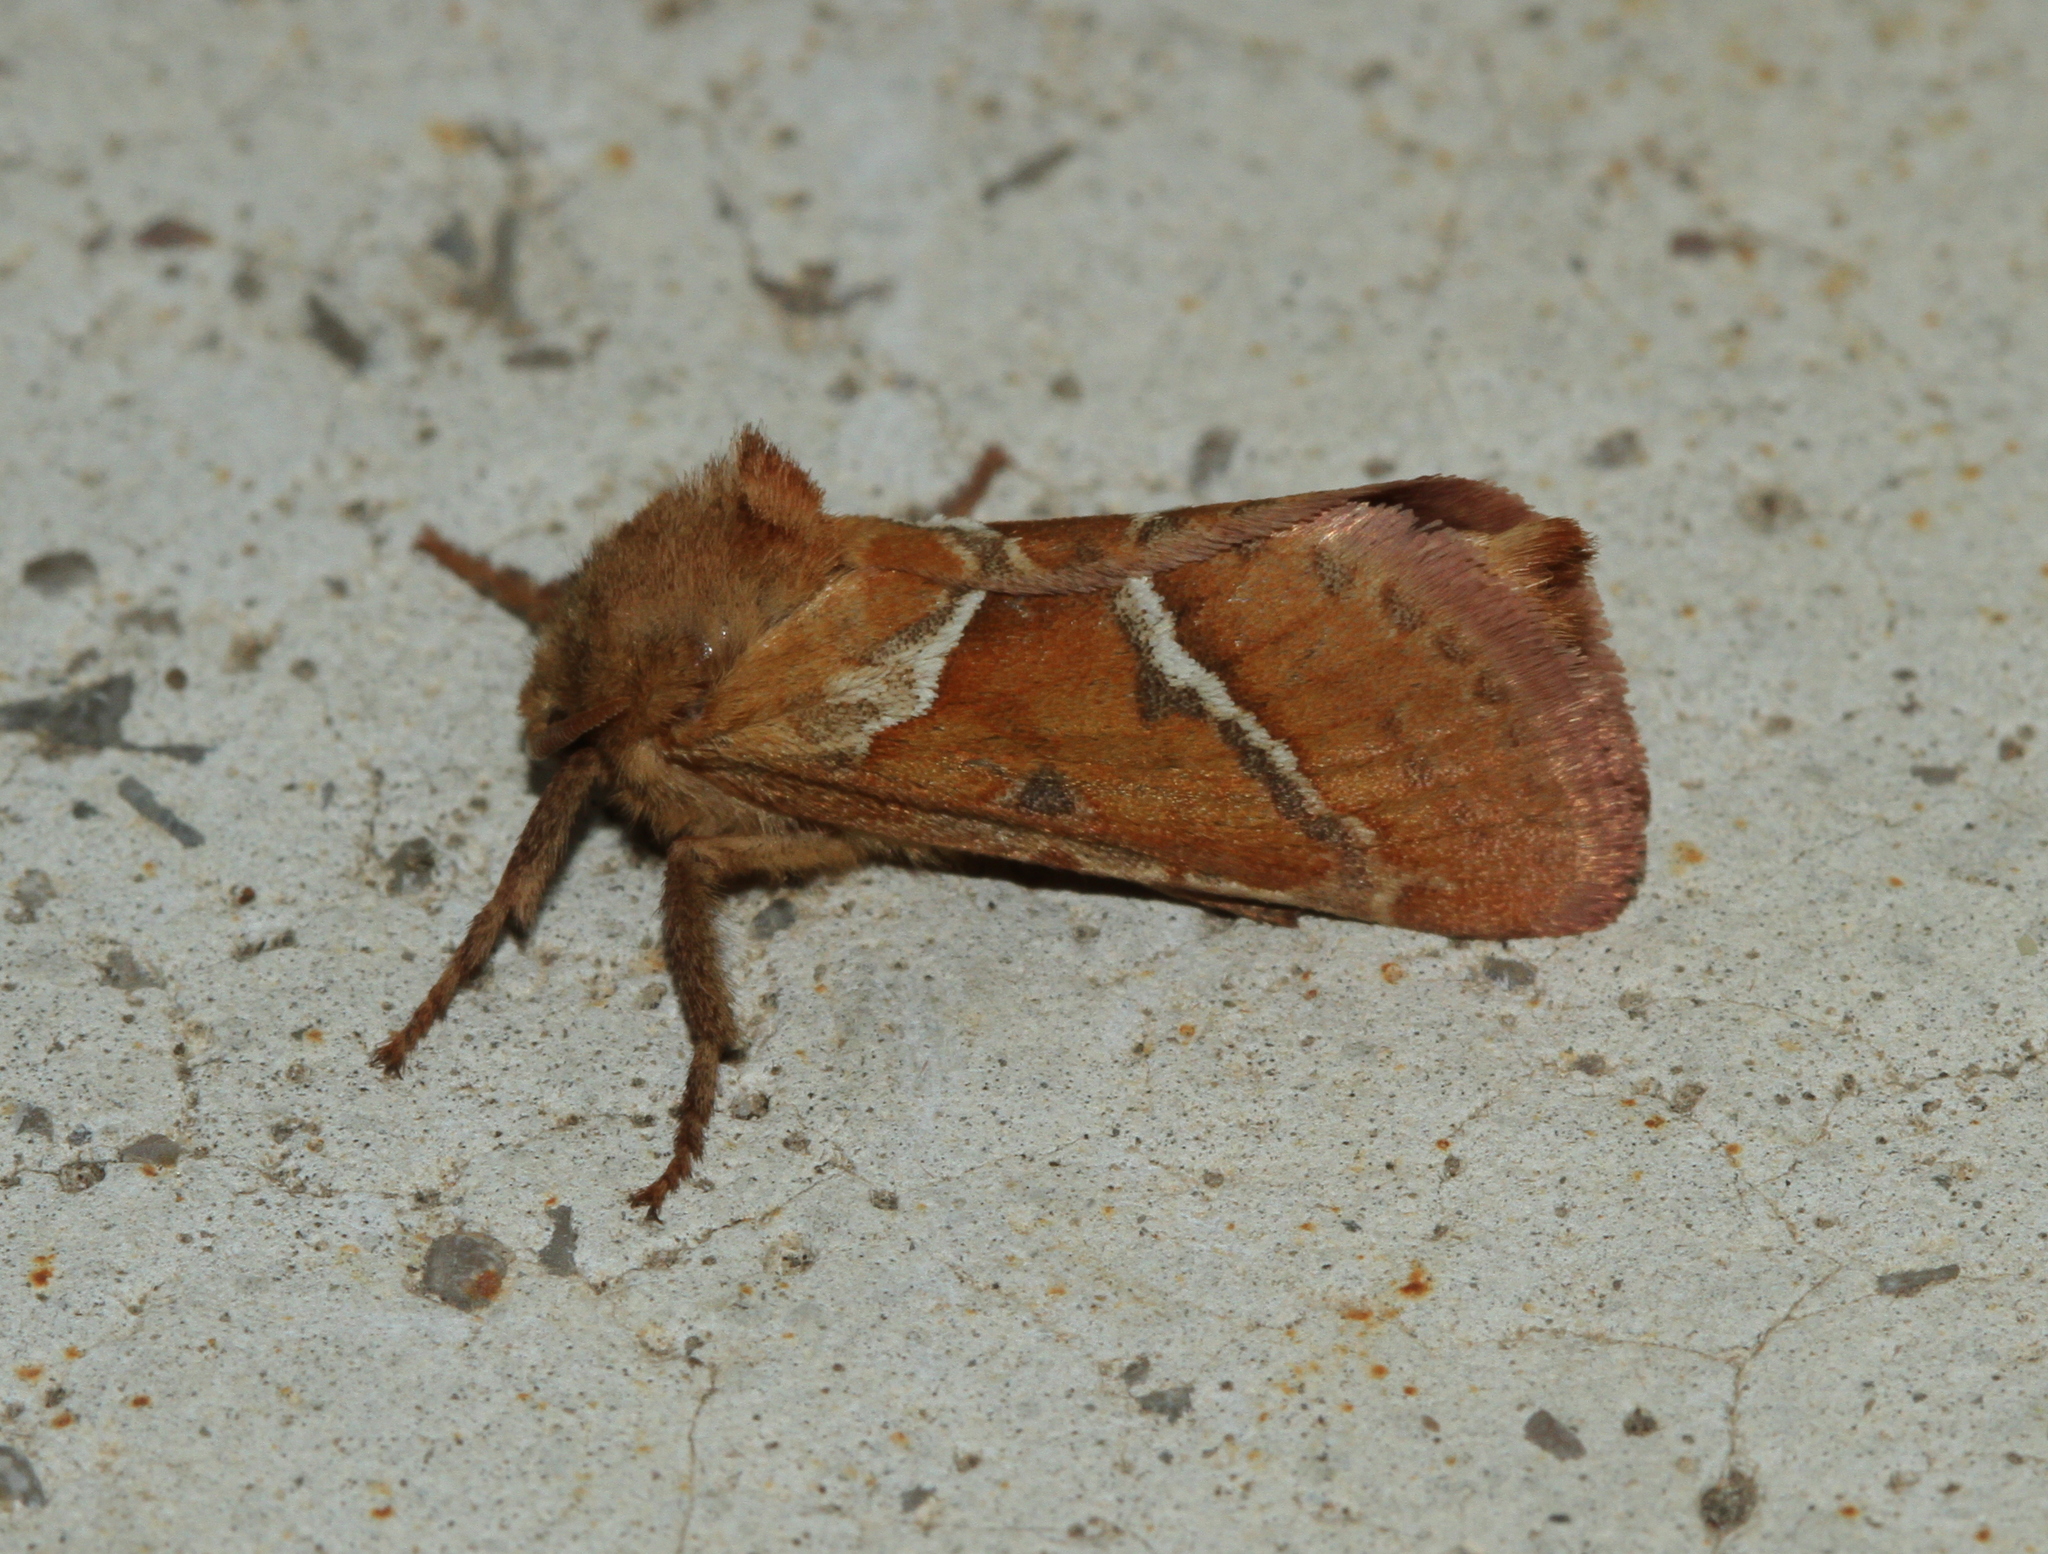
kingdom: Animalia
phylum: Arthropoda
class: Insecta
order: Lepidoptera
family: Hepialidae
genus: Triodia
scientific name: Triodia sylvina
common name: Orange swift
